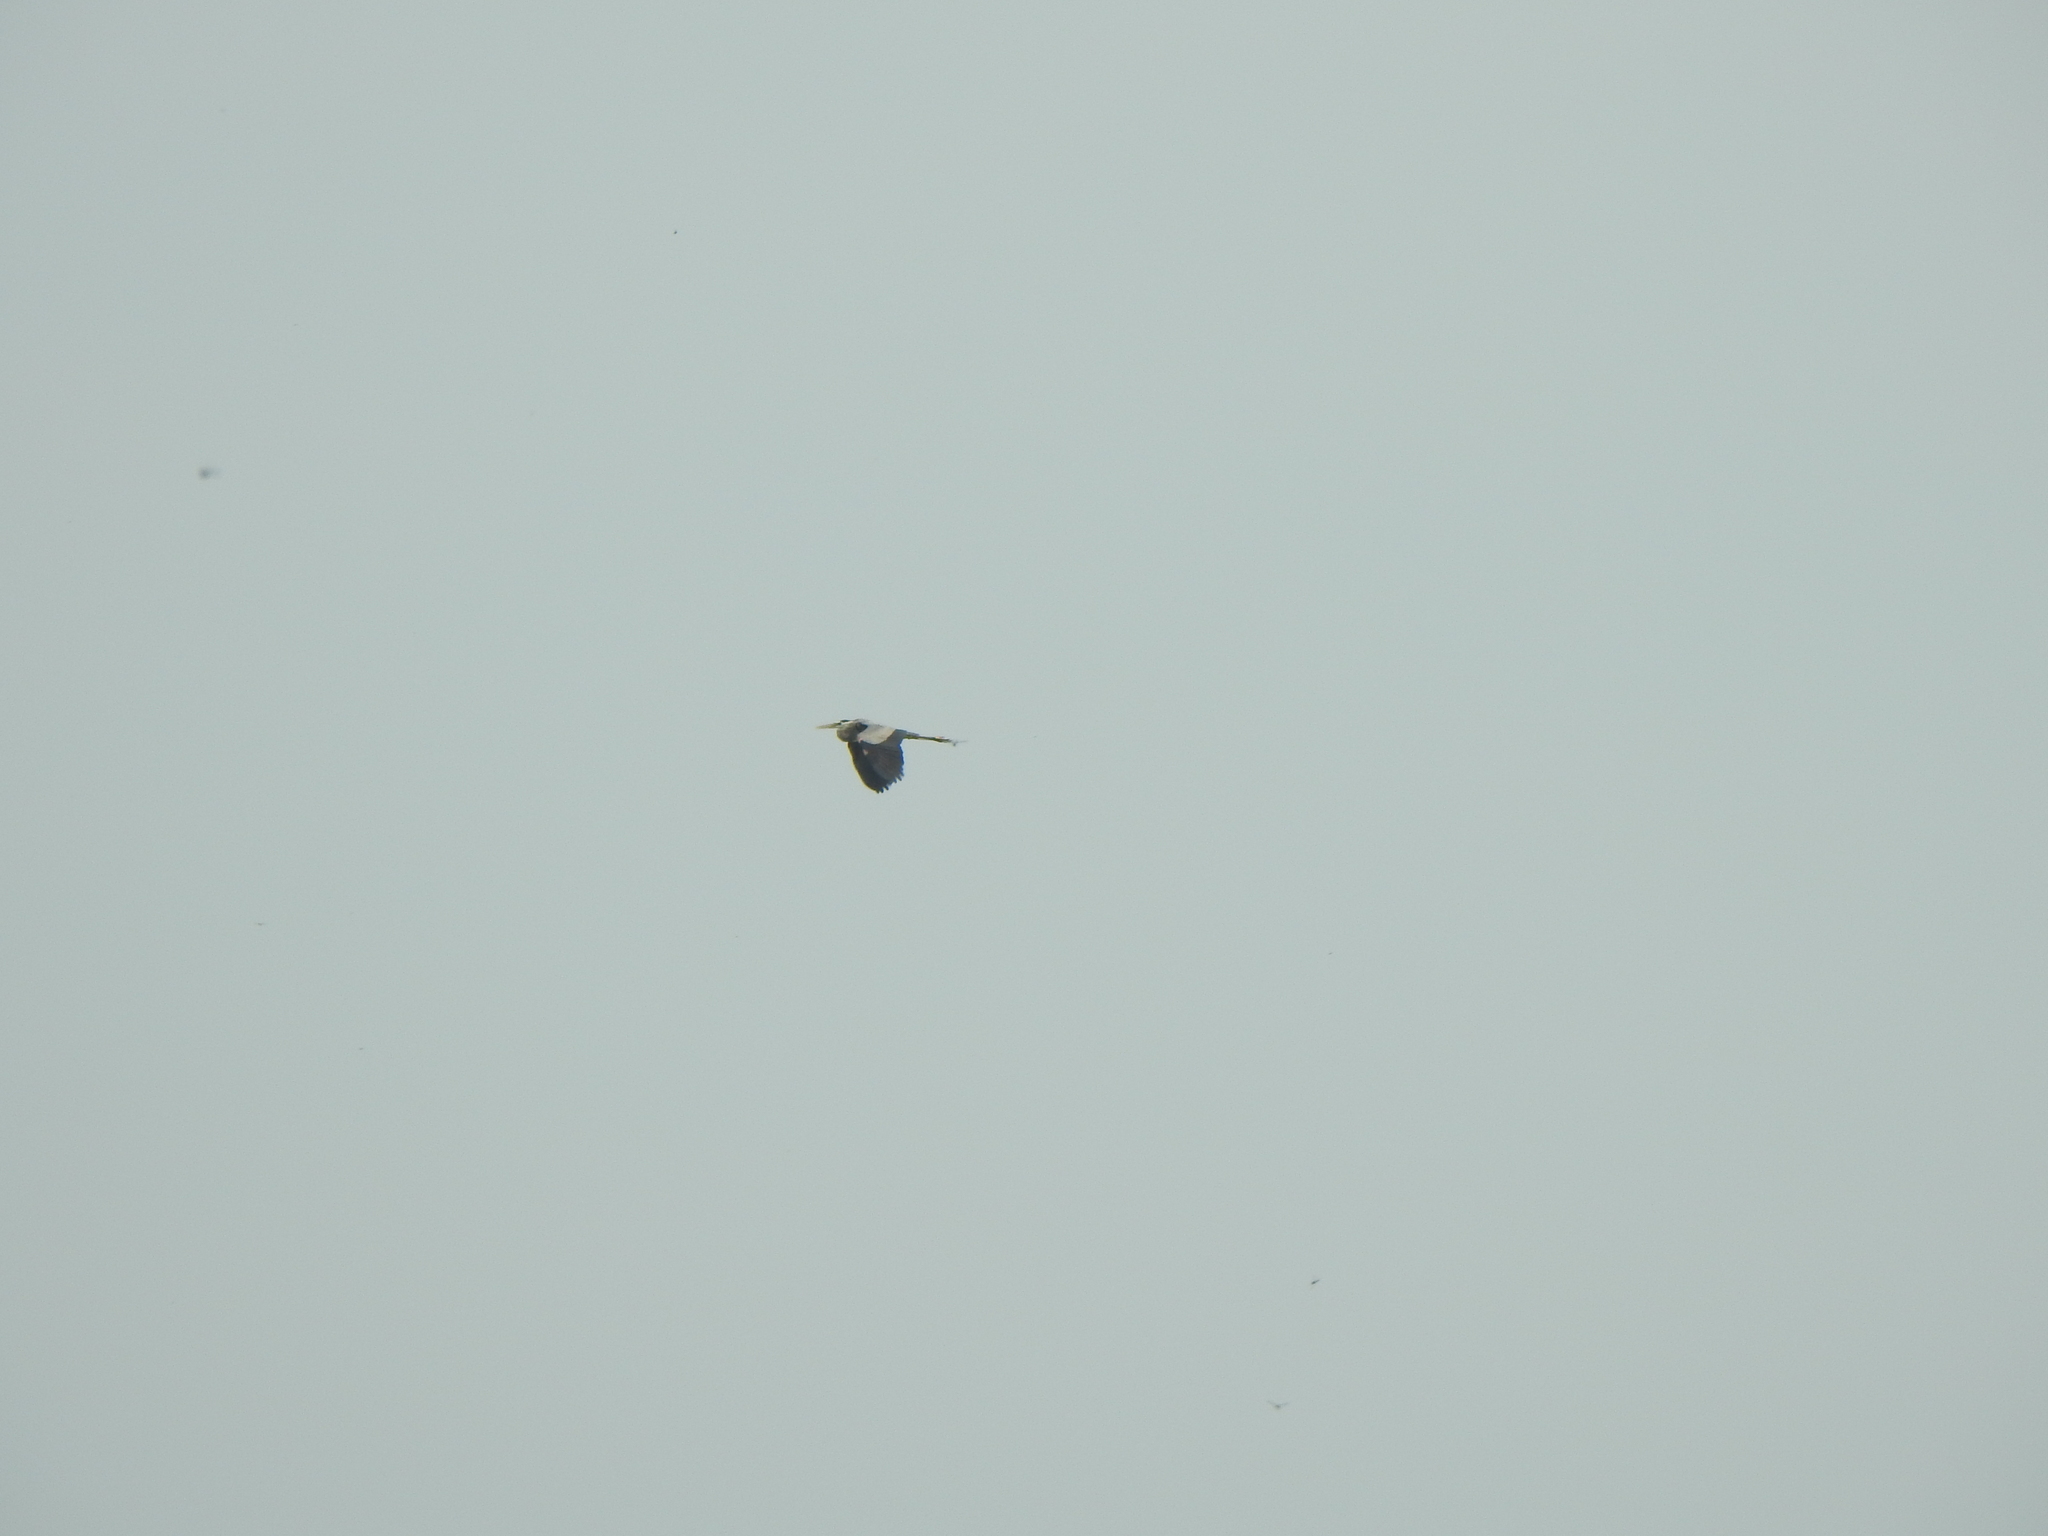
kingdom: Animalia
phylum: Chordata
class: Aves
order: Pelecaniformes
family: Ardeidae
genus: Ardea
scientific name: Ardea herodias
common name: Great blue heron
